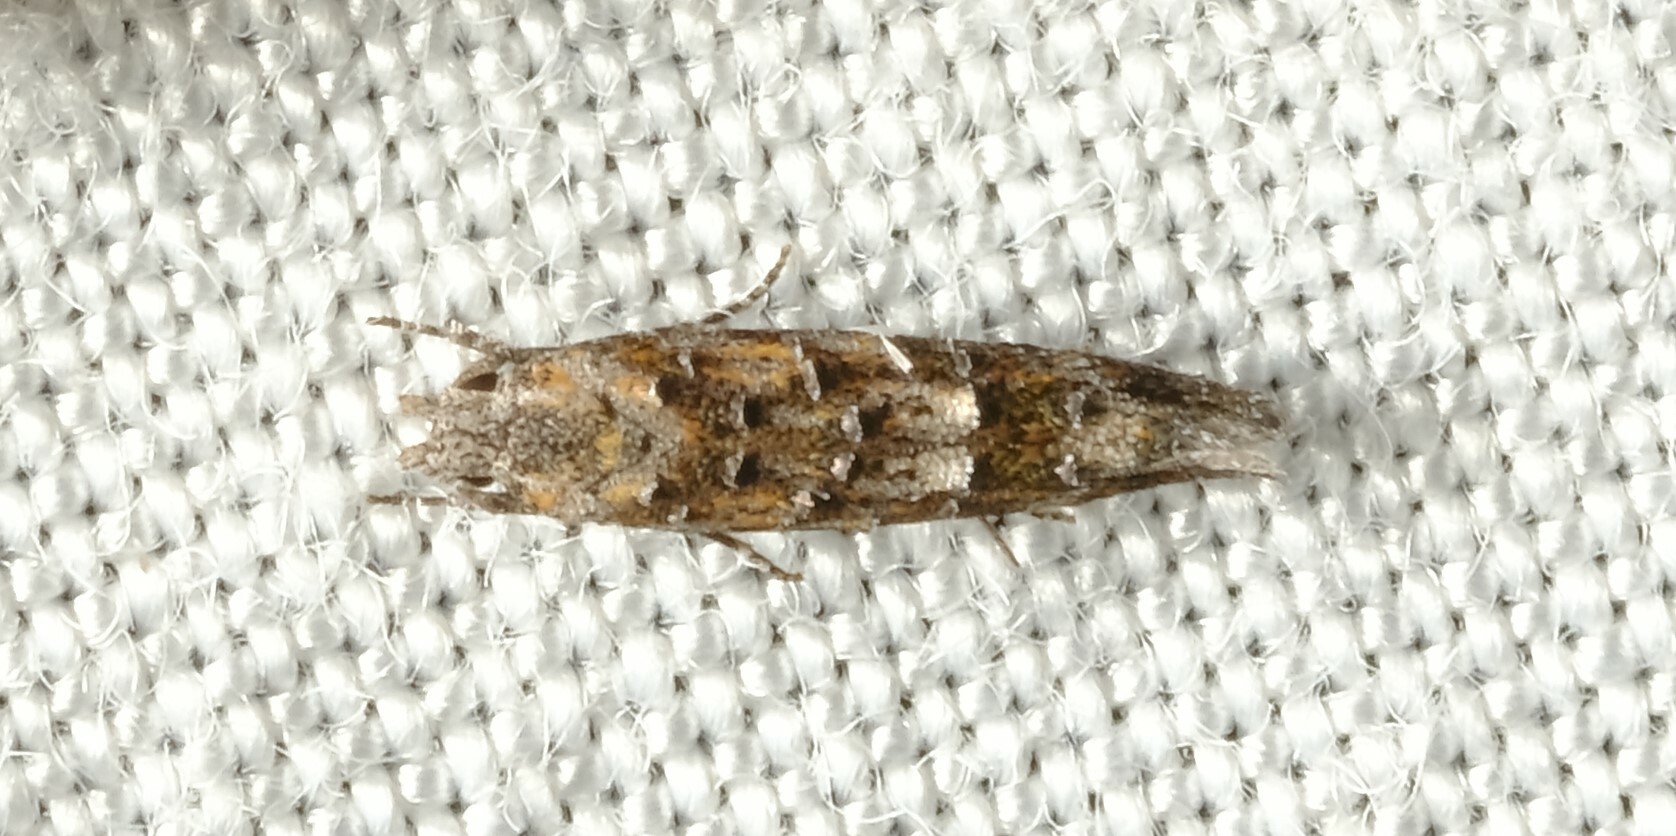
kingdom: Animalia
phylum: Arthropoda
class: Insecta
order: Lepidoptera
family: Elachistidae
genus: Leptozestis
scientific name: Leptozestis crassipalpis
